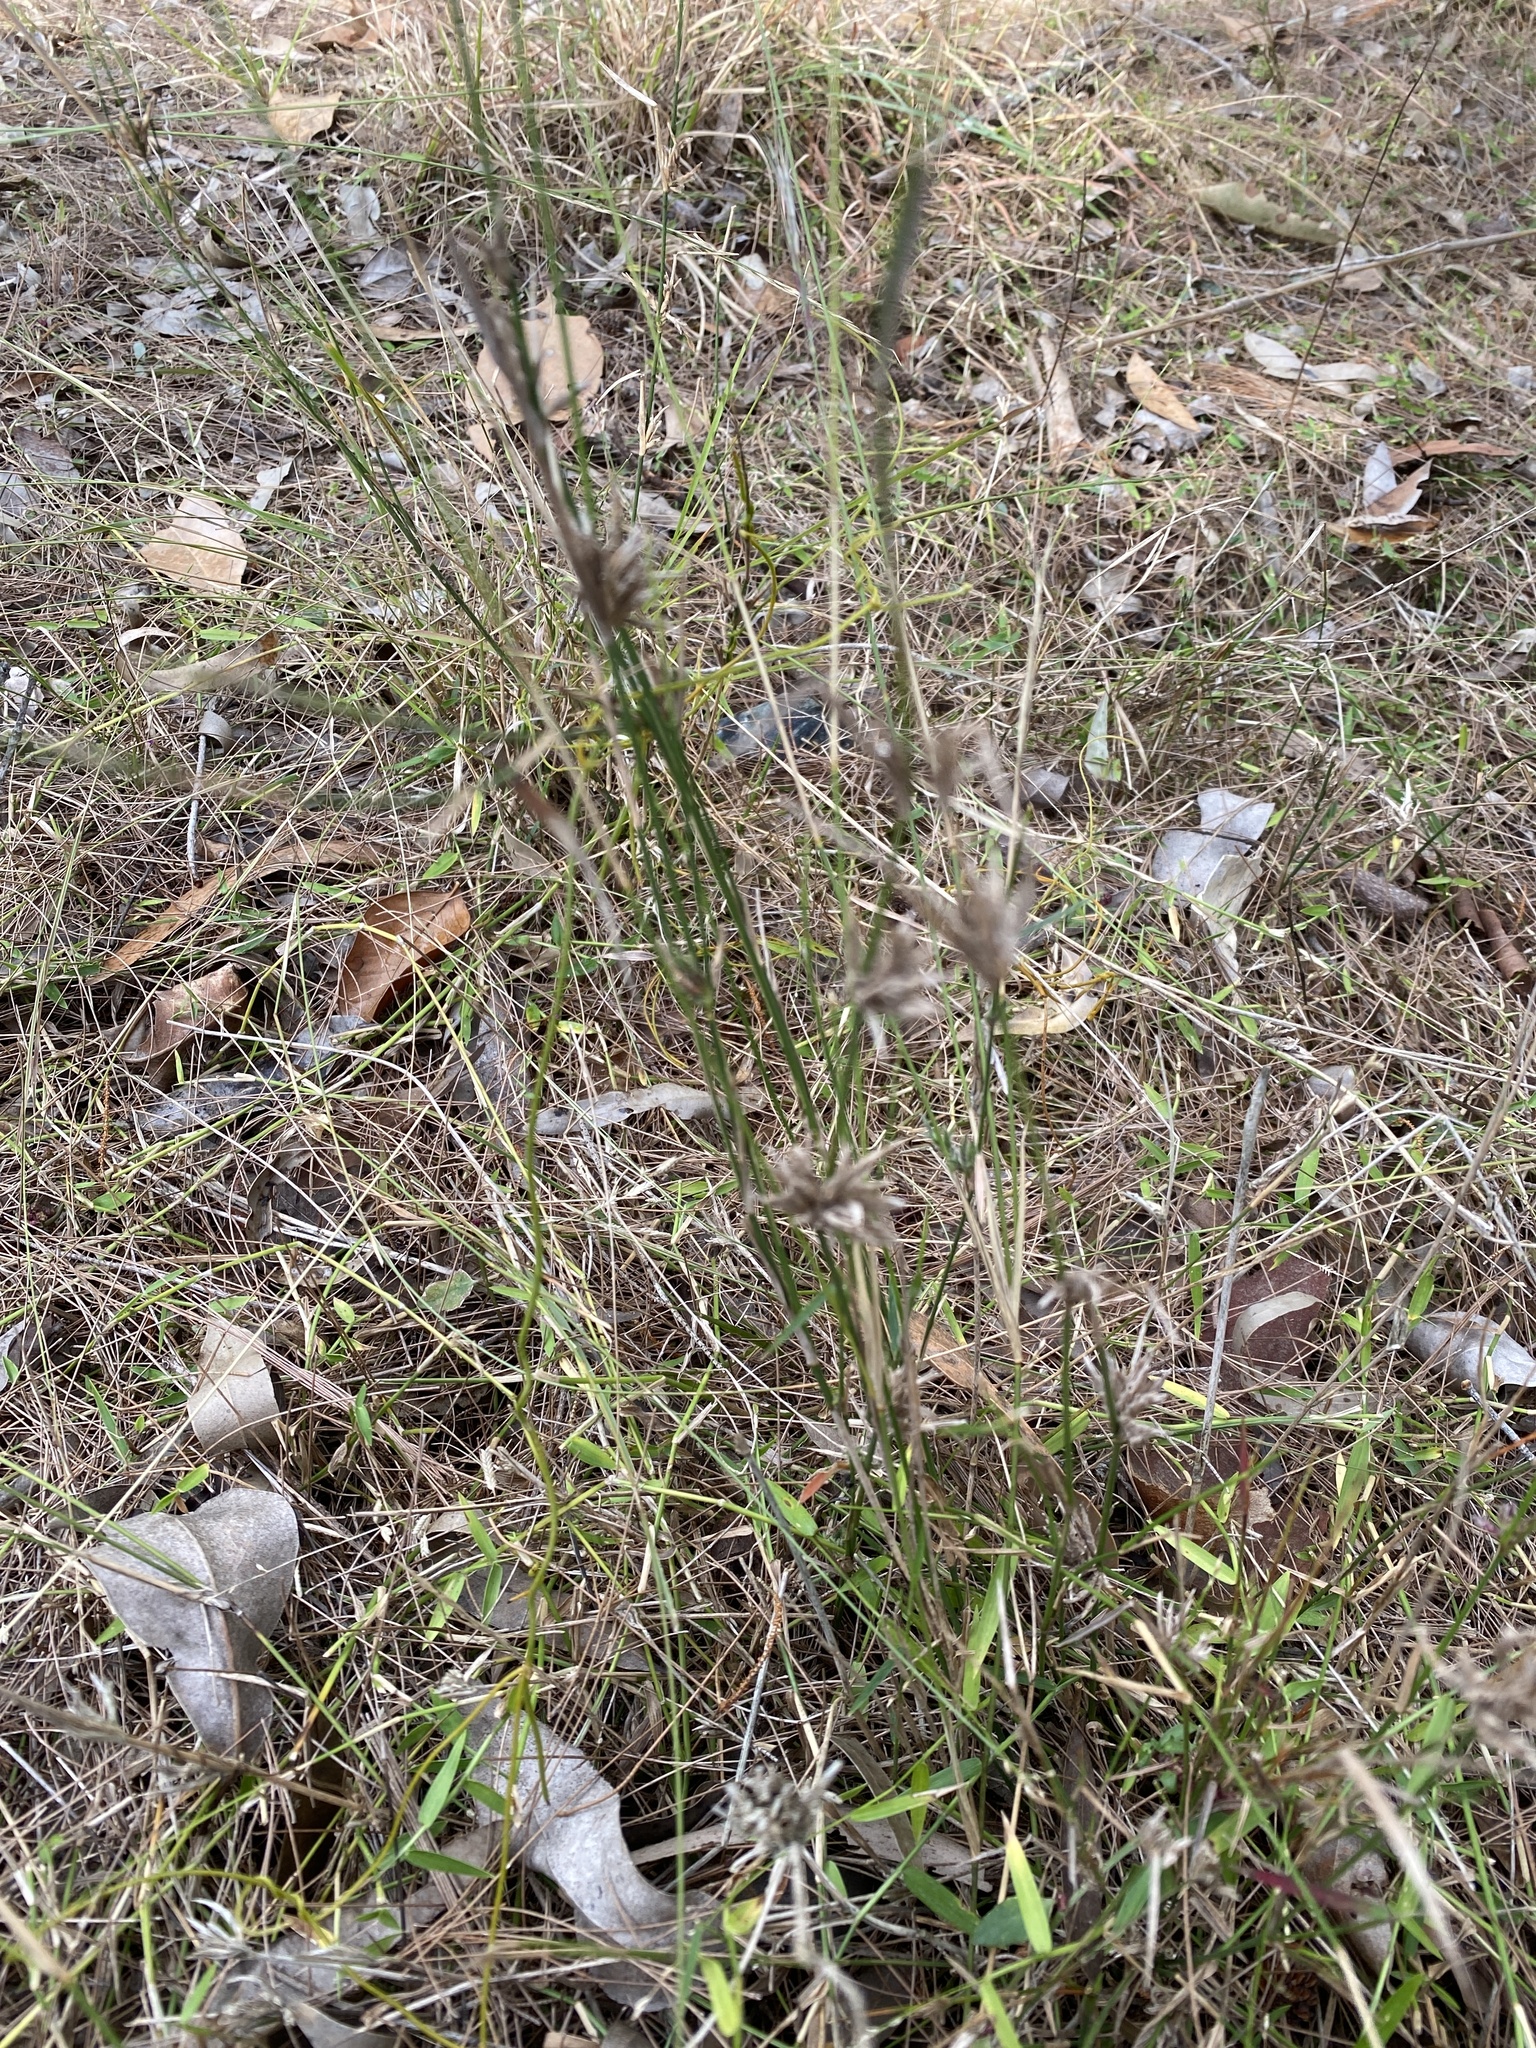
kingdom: Plantae
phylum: Tracheophyta
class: Liliopsida
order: Poales
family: Poaceae
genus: Entolasia
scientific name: Entolasia stricta
